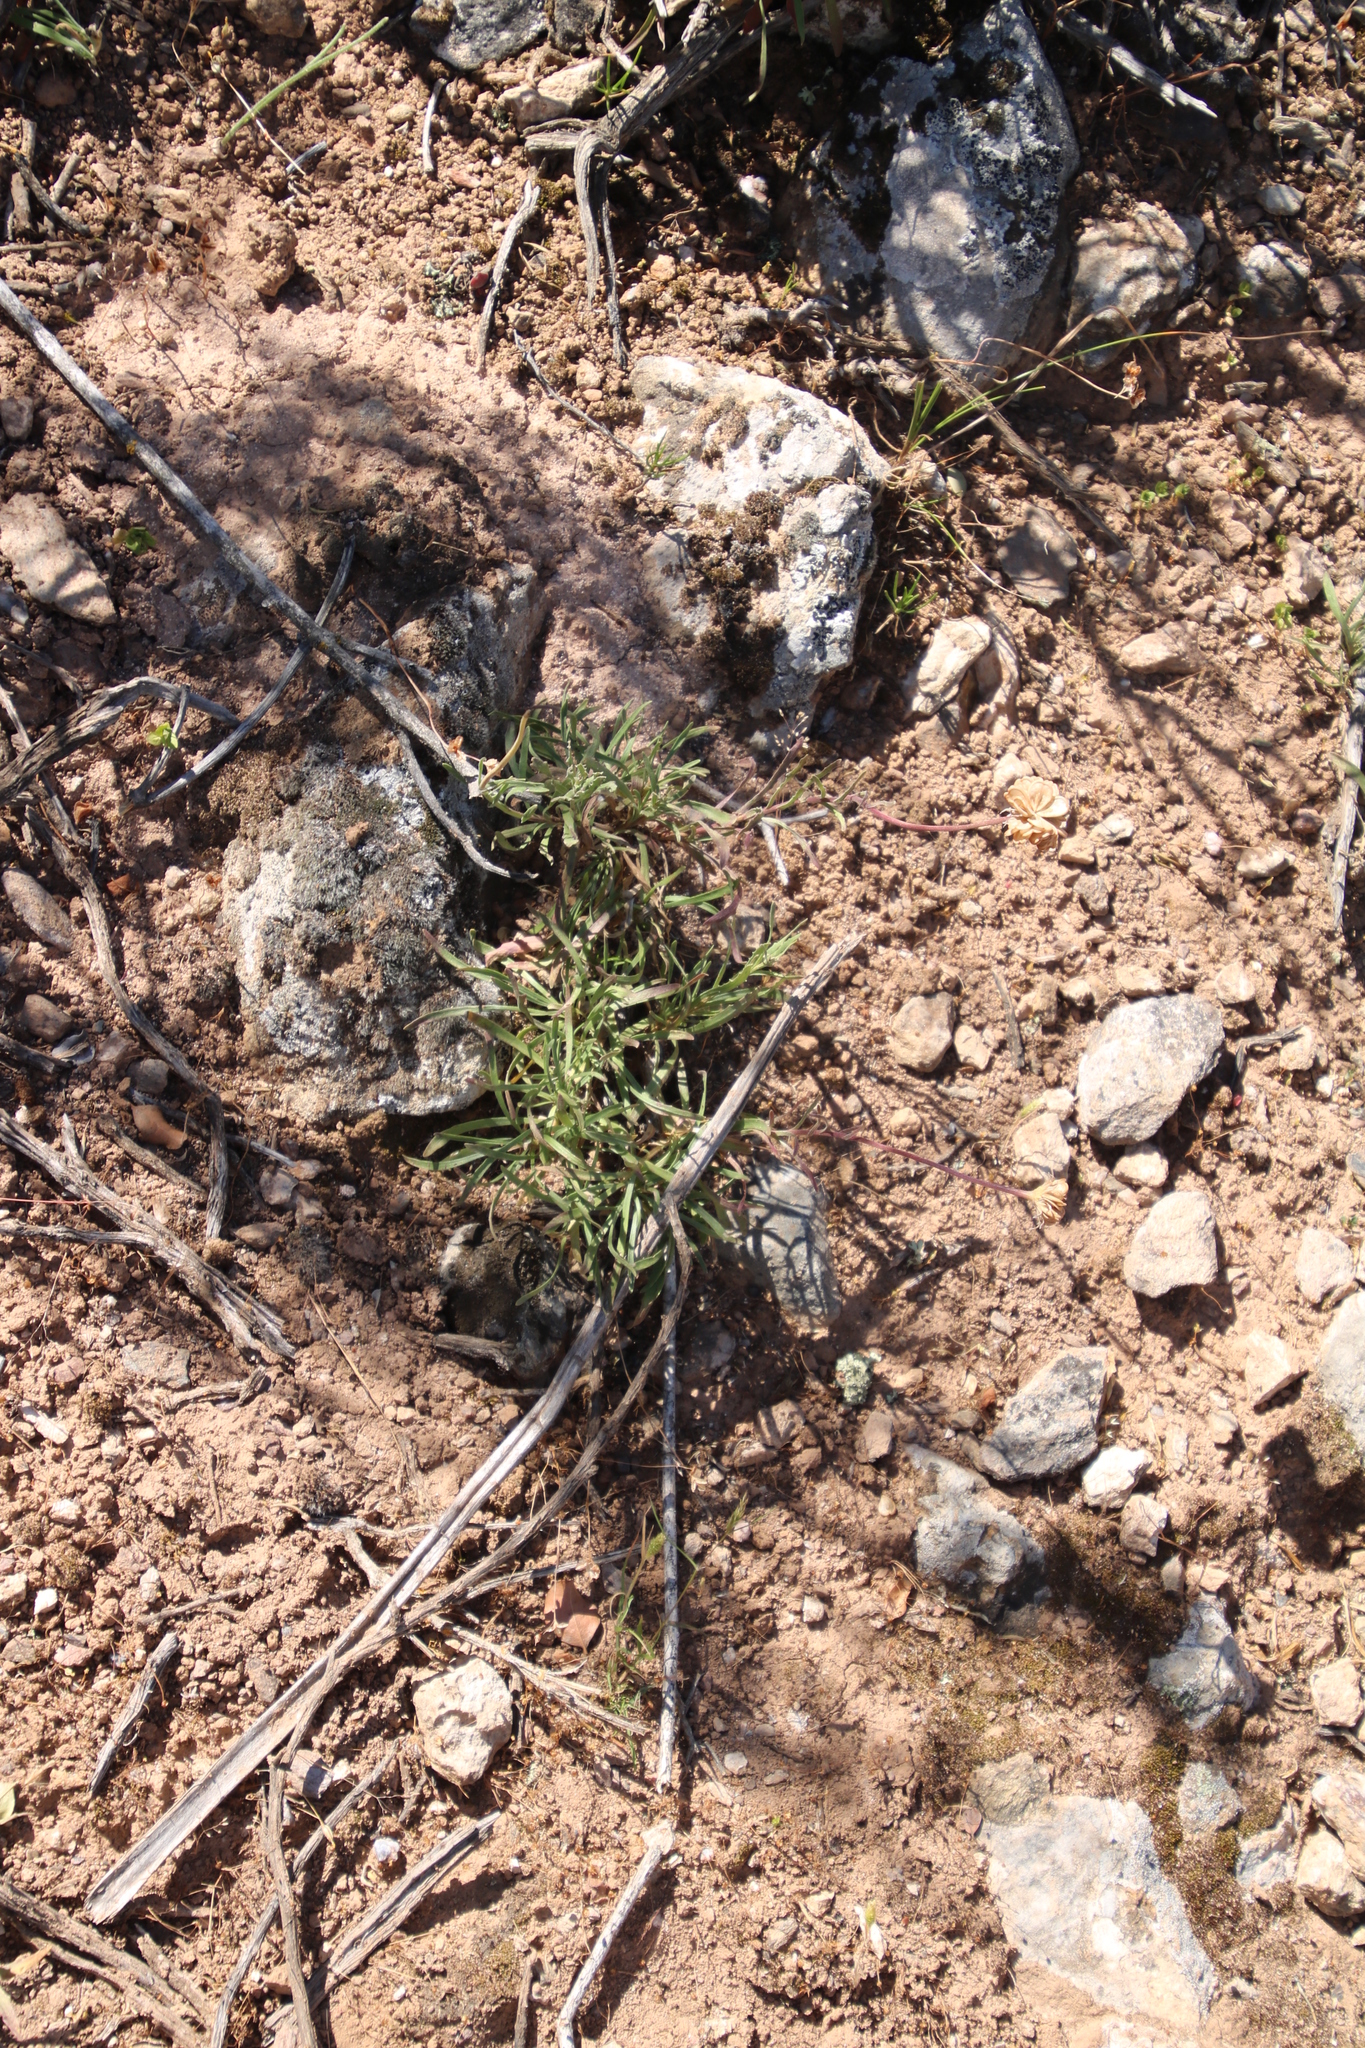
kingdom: Plantae
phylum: Tracheophyta
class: Magnoliopsida
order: Asterales
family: Asteraceae
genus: Dimorphotheca
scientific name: Dimorphotheca nudicaulis
